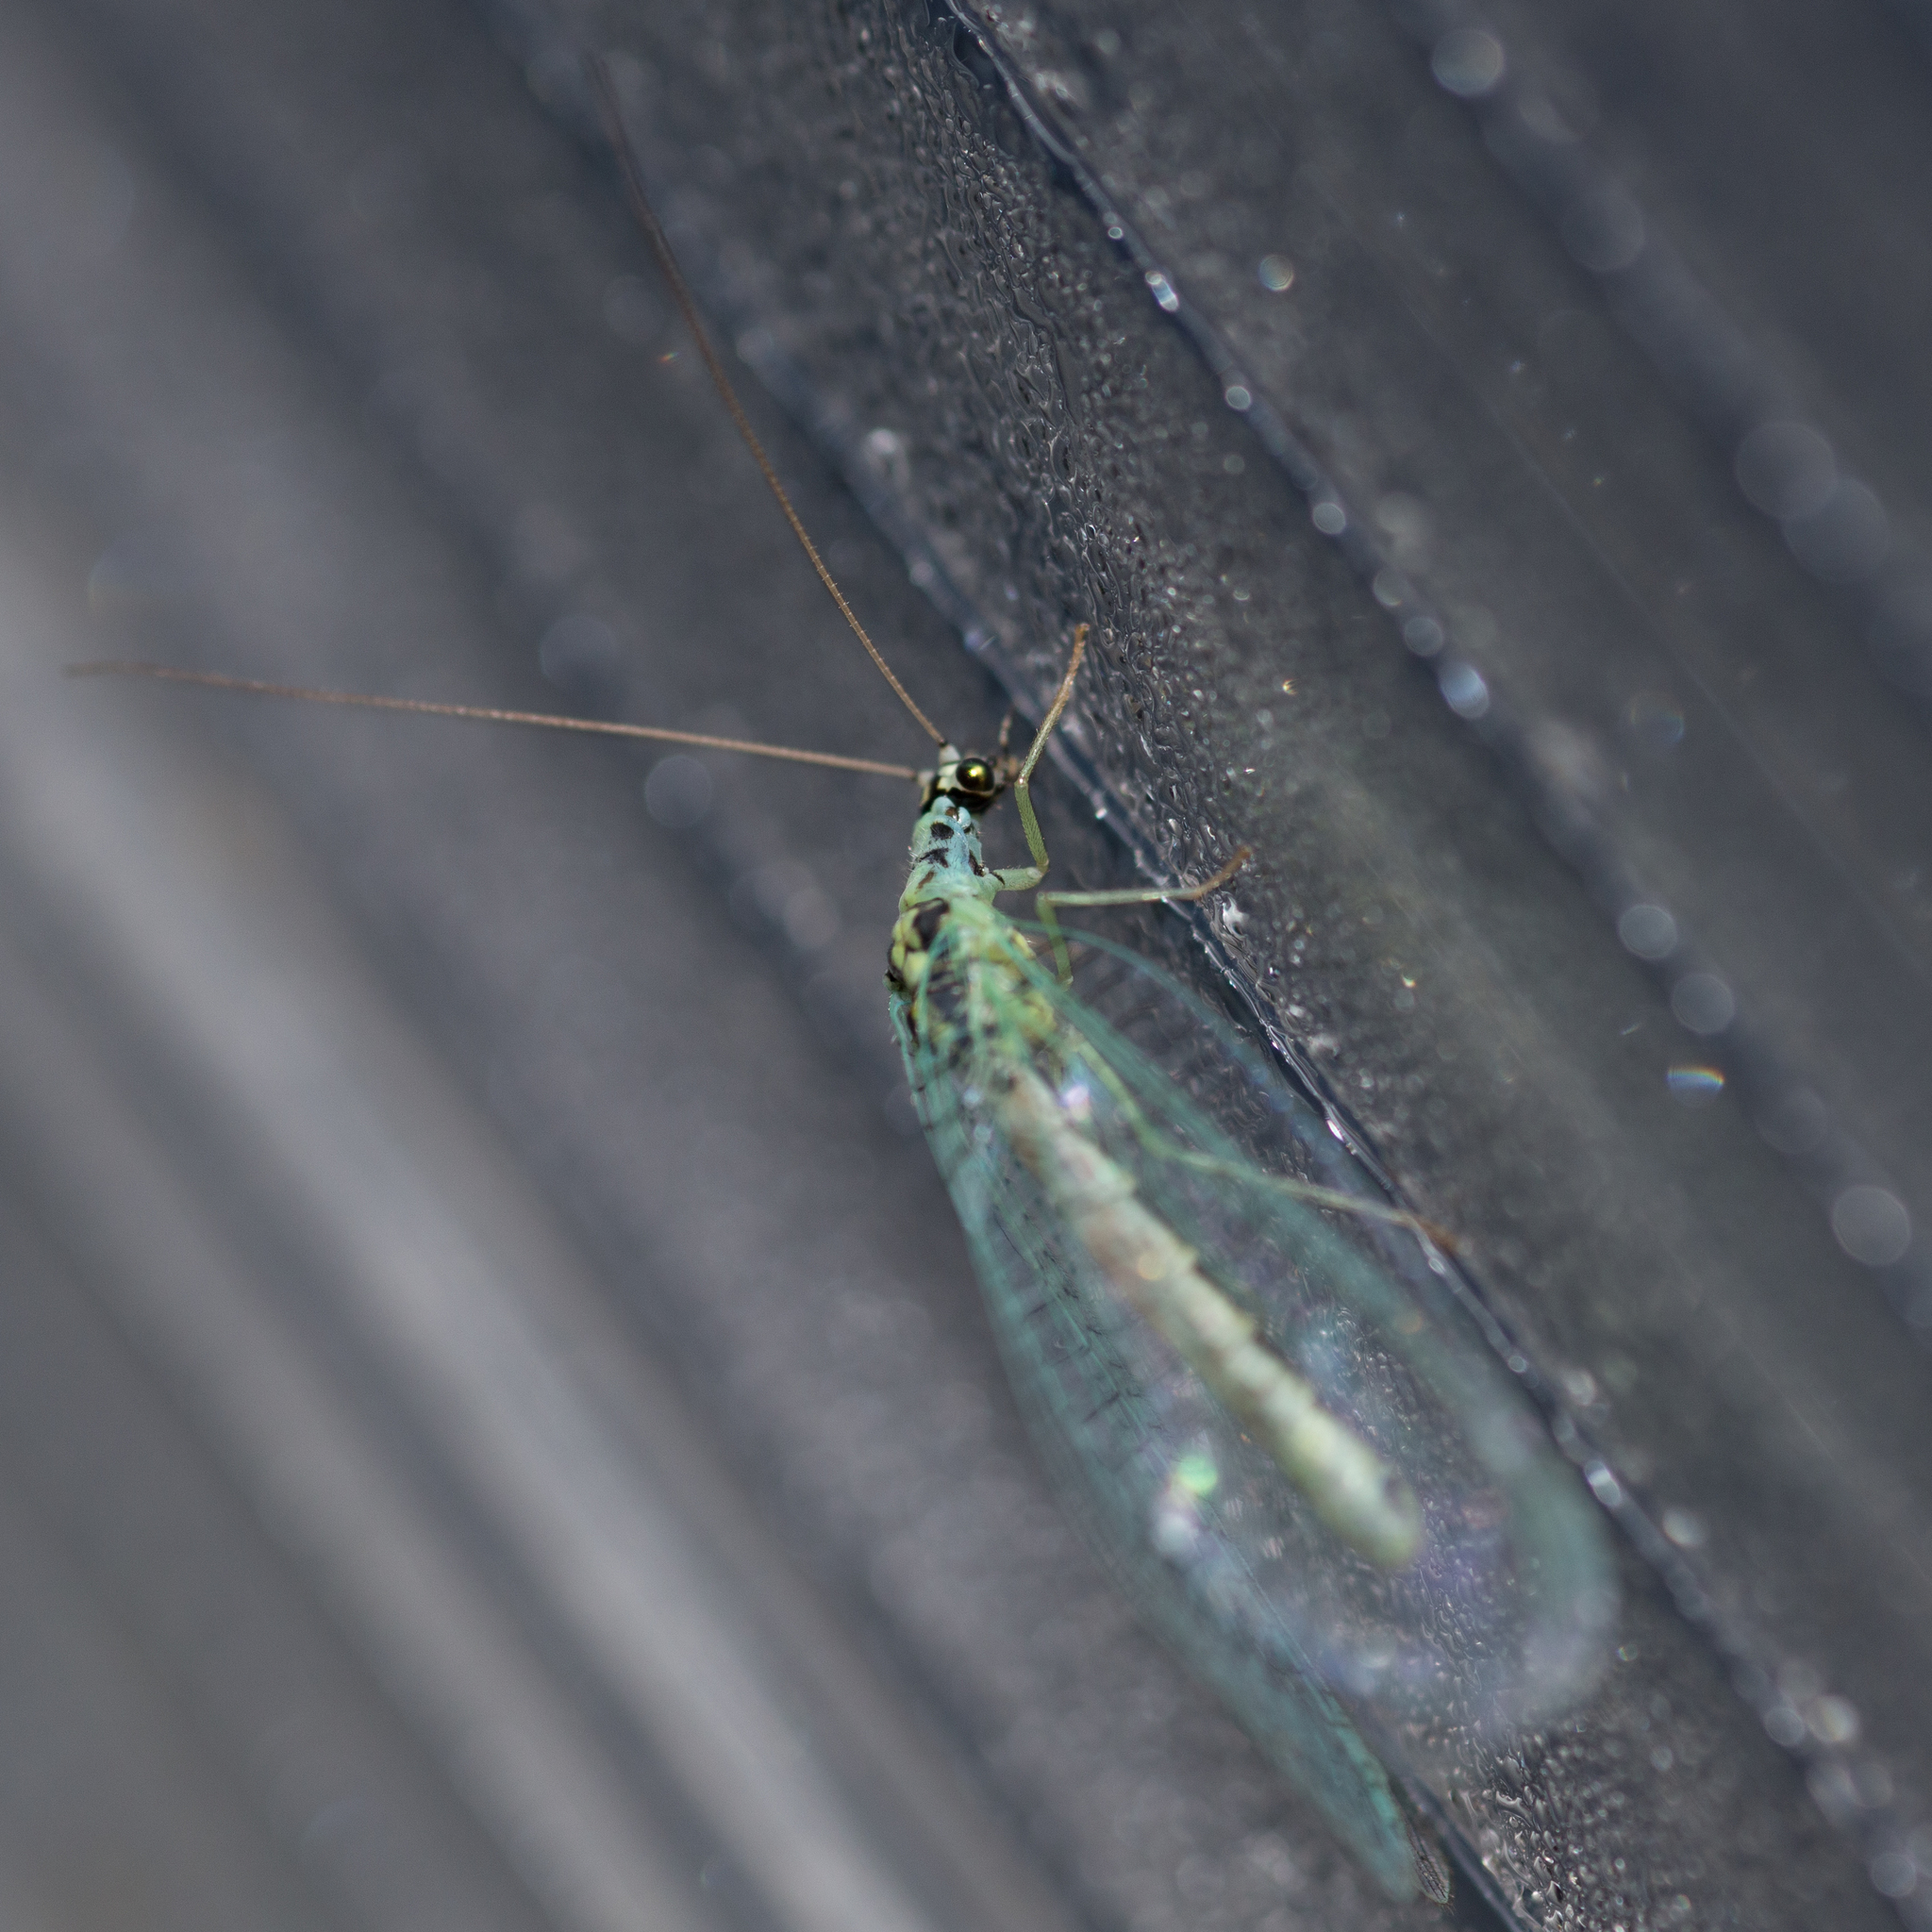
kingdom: Animalia
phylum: Arthropoda
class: Insecta
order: Neuroptera
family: Chrysopidae
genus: Chrysopa
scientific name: Chrysopa perla
